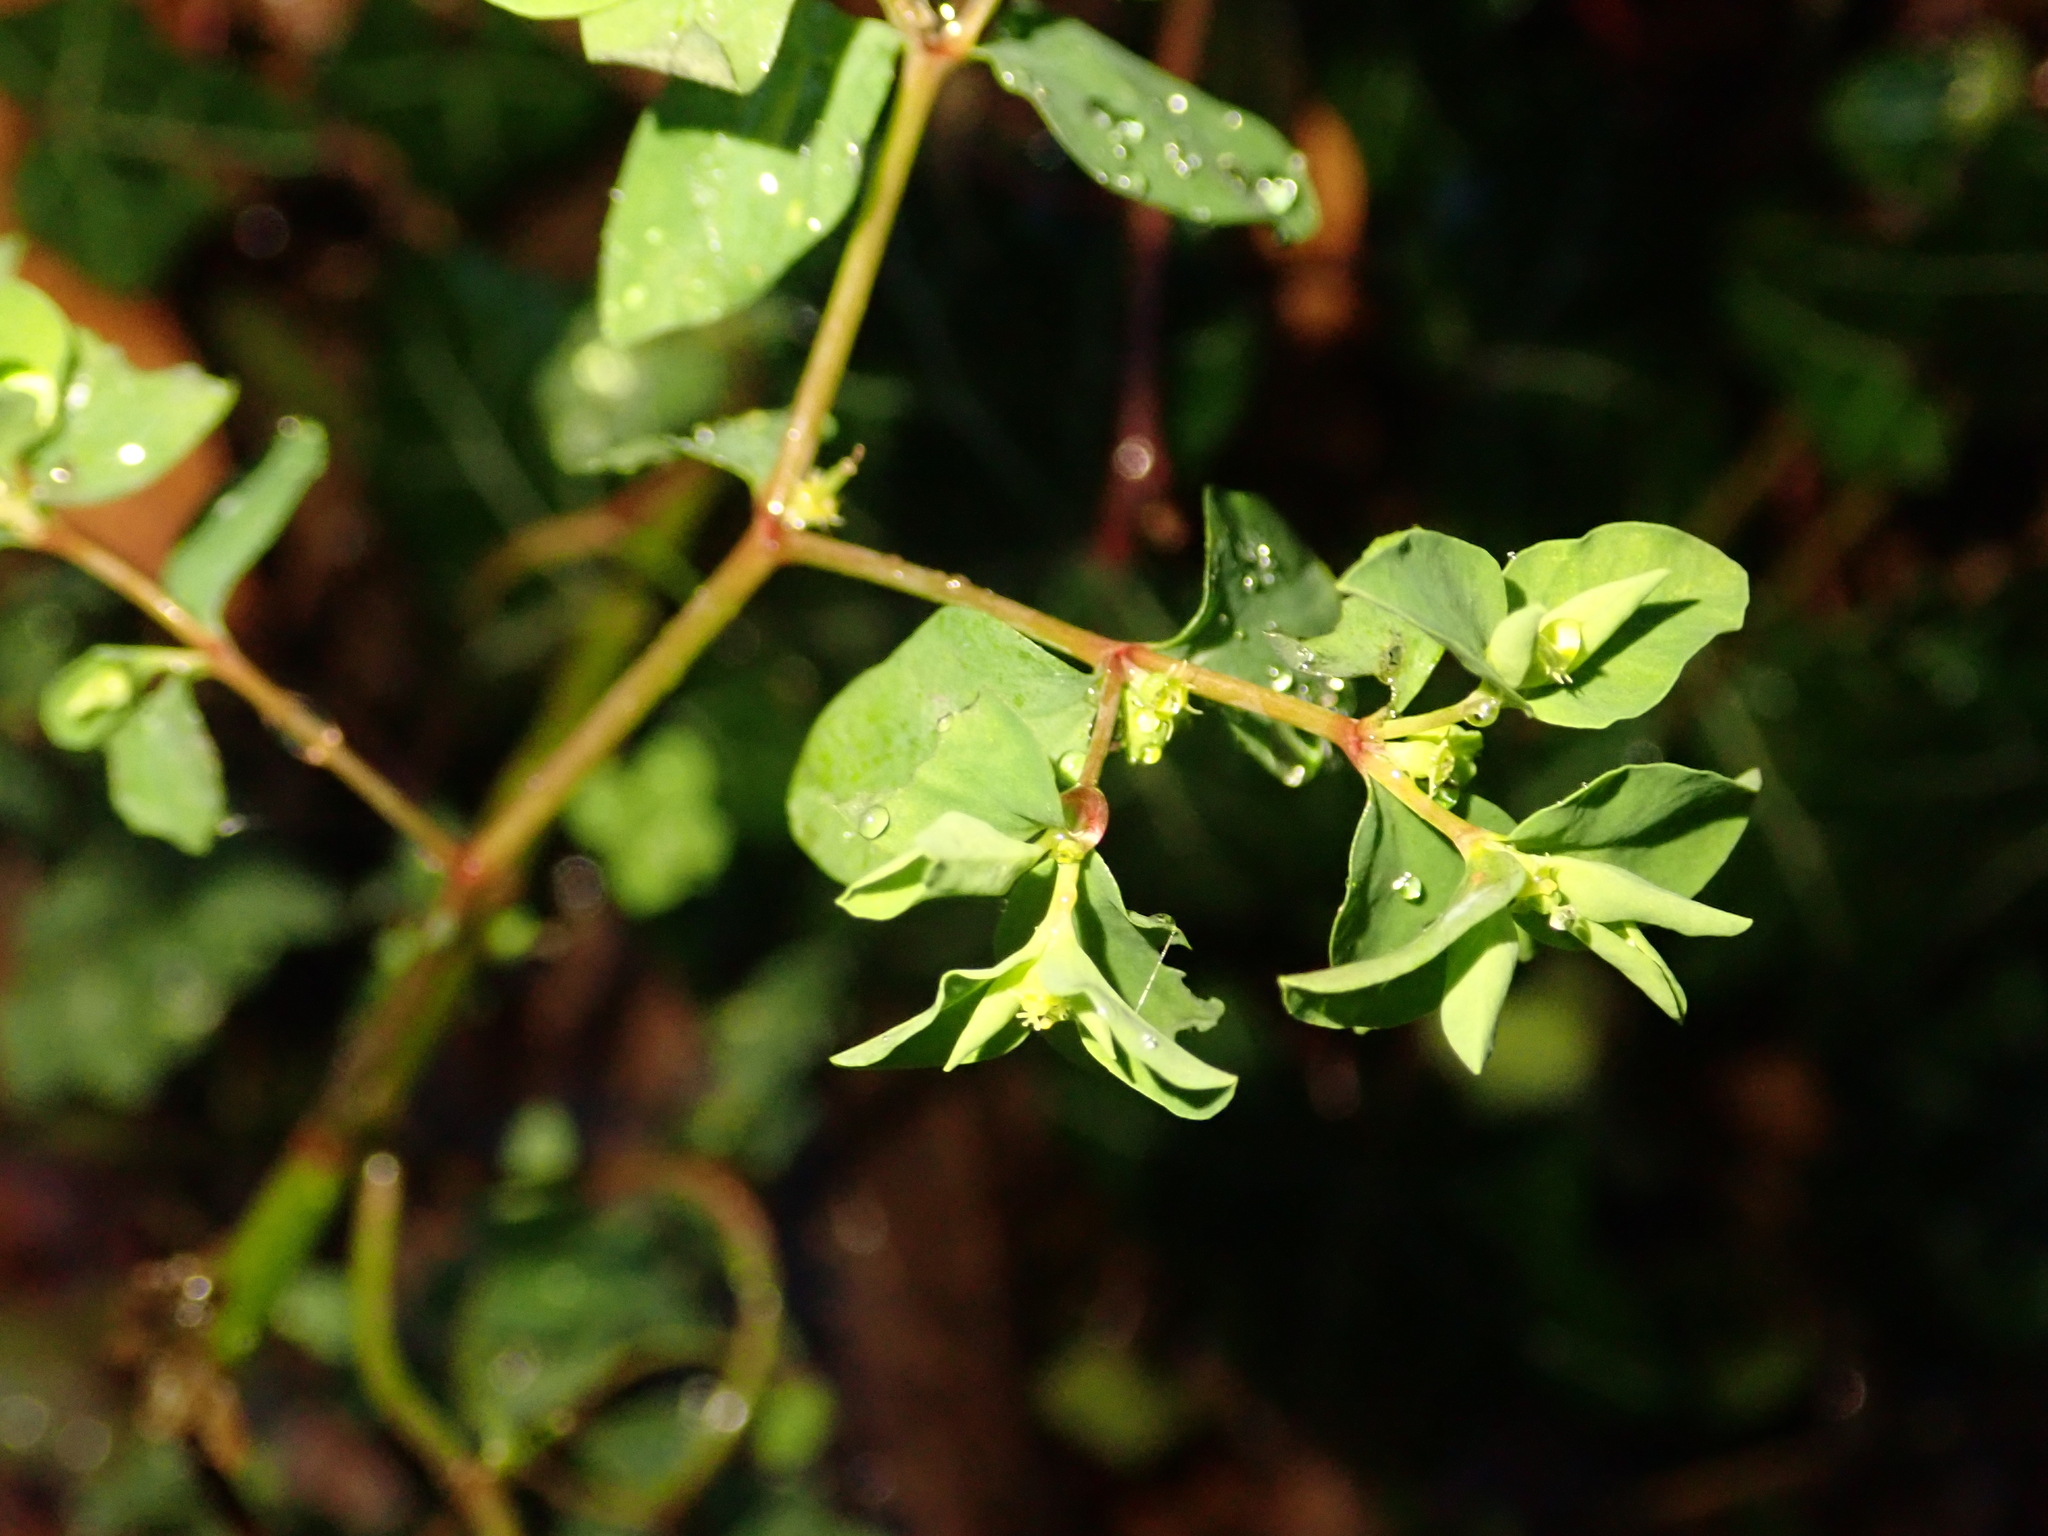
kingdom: Plantae
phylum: Tracheophyta
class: Magnoliopsida
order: Malpighiales
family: Euphorbiaceae
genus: Euphorbia
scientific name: Euphorbia peplus
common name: Petty spurge
